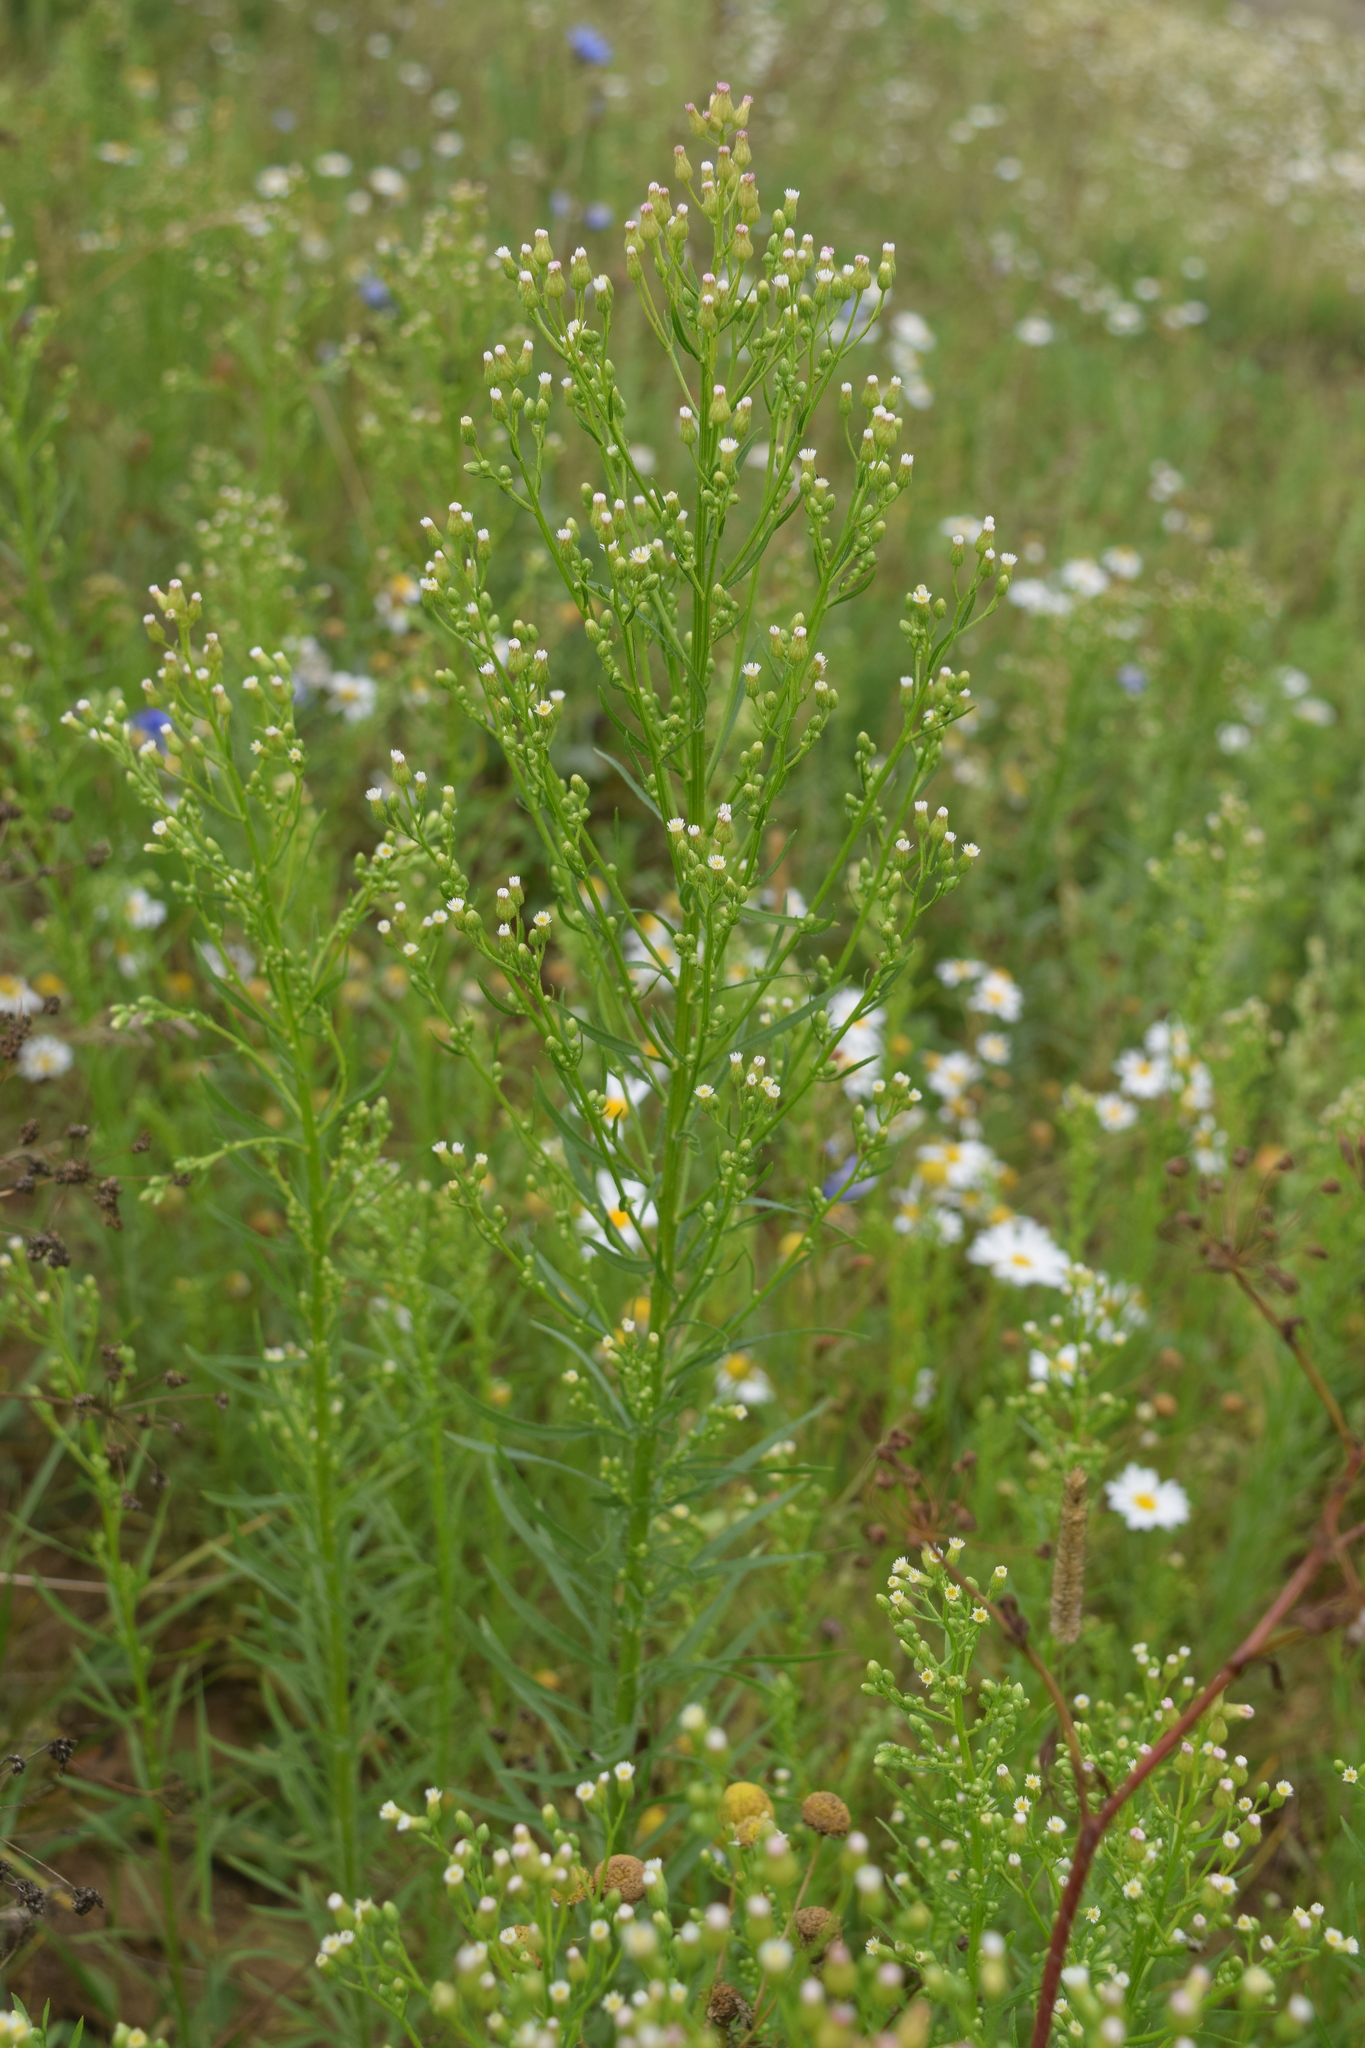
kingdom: Plantae
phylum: Tracheophyta
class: Magnoliopsida
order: Asterales
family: Asteraceae
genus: Erigeron
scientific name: Erigeron canadensis
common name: Canadian fleabane
